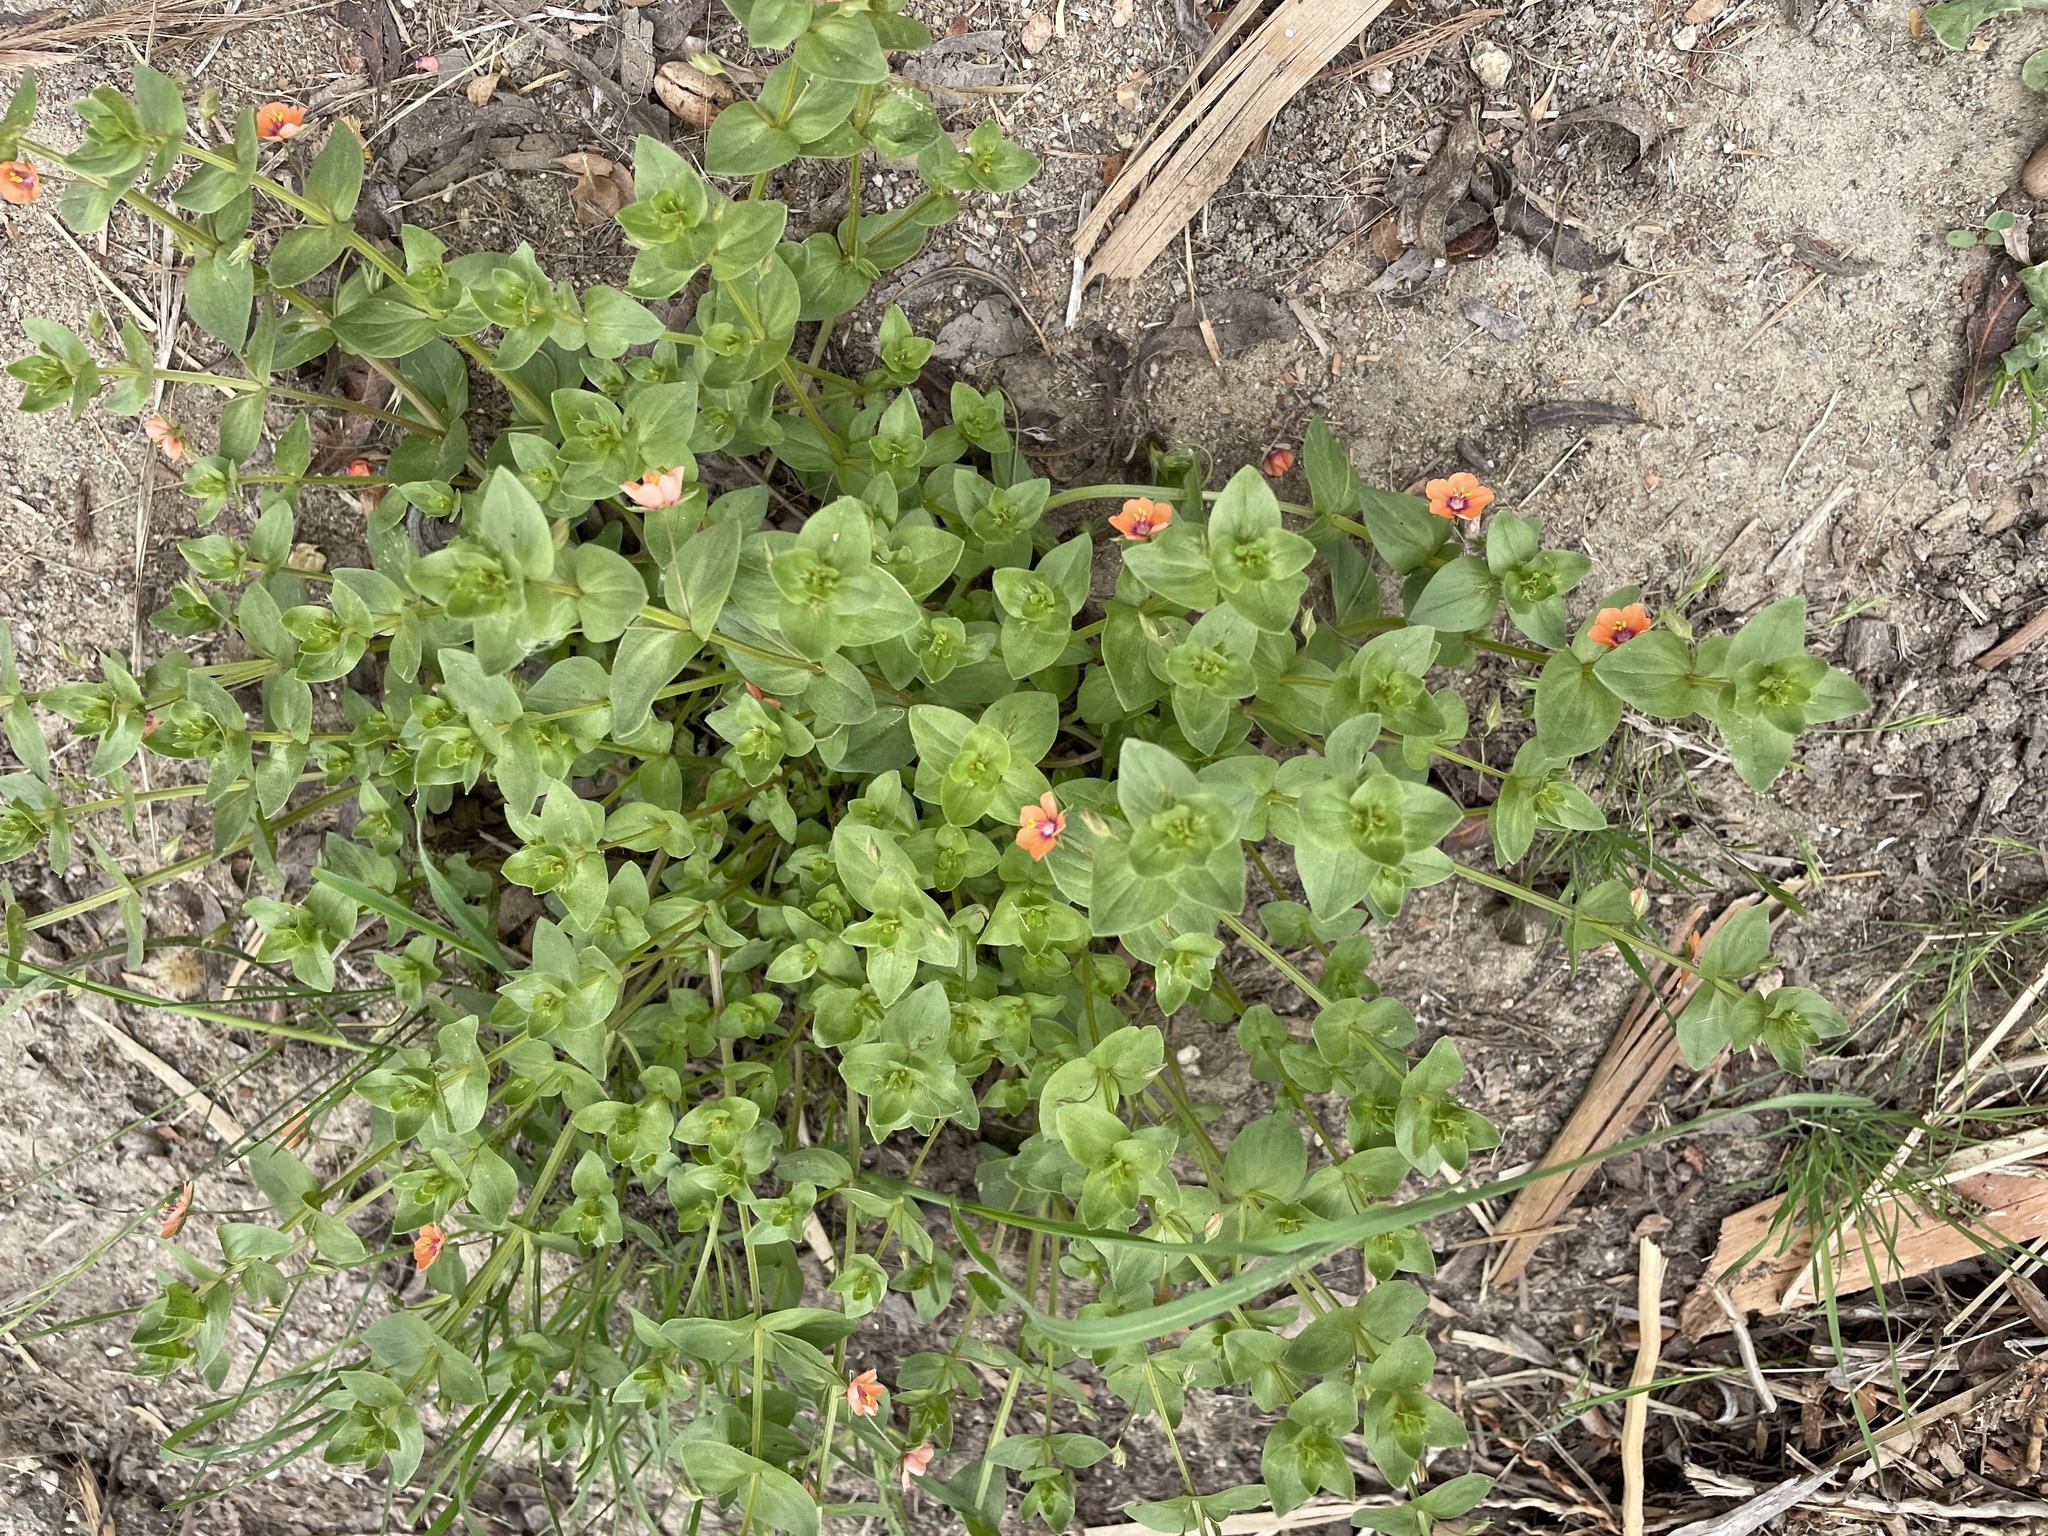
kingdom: Plantae
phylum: Tracheophyta
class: Magnoliopsida
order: Ericales
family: Primulaceae
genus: Lysimachia
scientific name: Lysimachia arvensis
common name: Scarlet pimpernel
